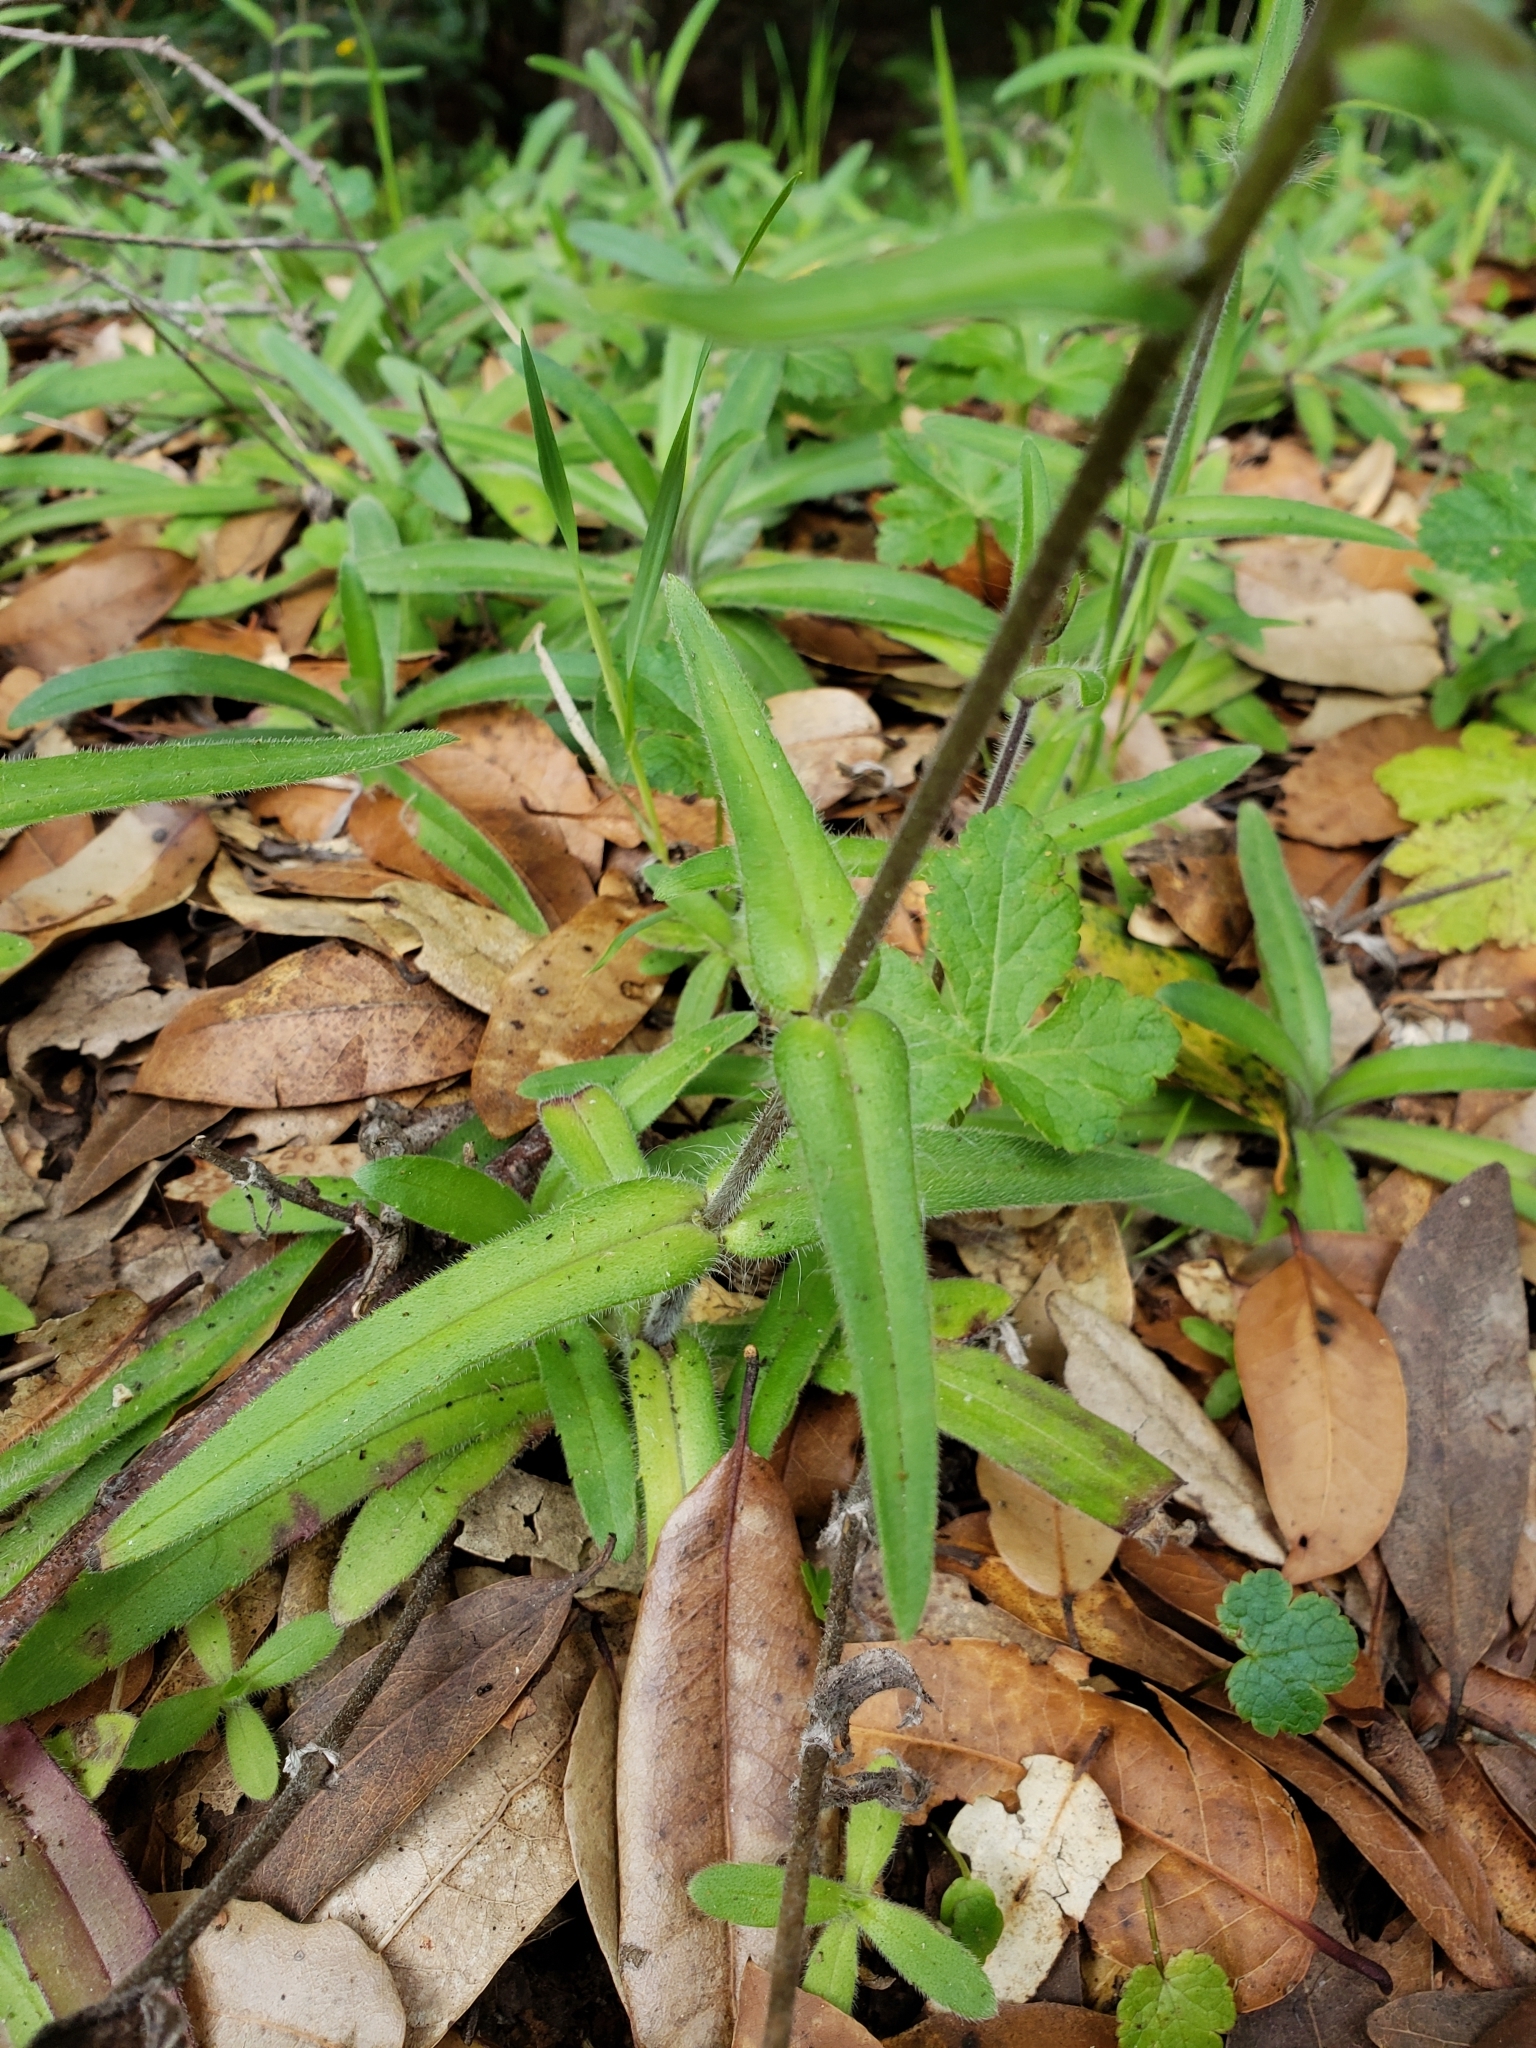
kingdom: Plantae
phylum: Tracheophyta
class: Magnoliopsida
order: Asterales
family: Asteraceae
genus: Anisocarpus
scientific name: Anisocarpus madioides
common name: Woodland madia
